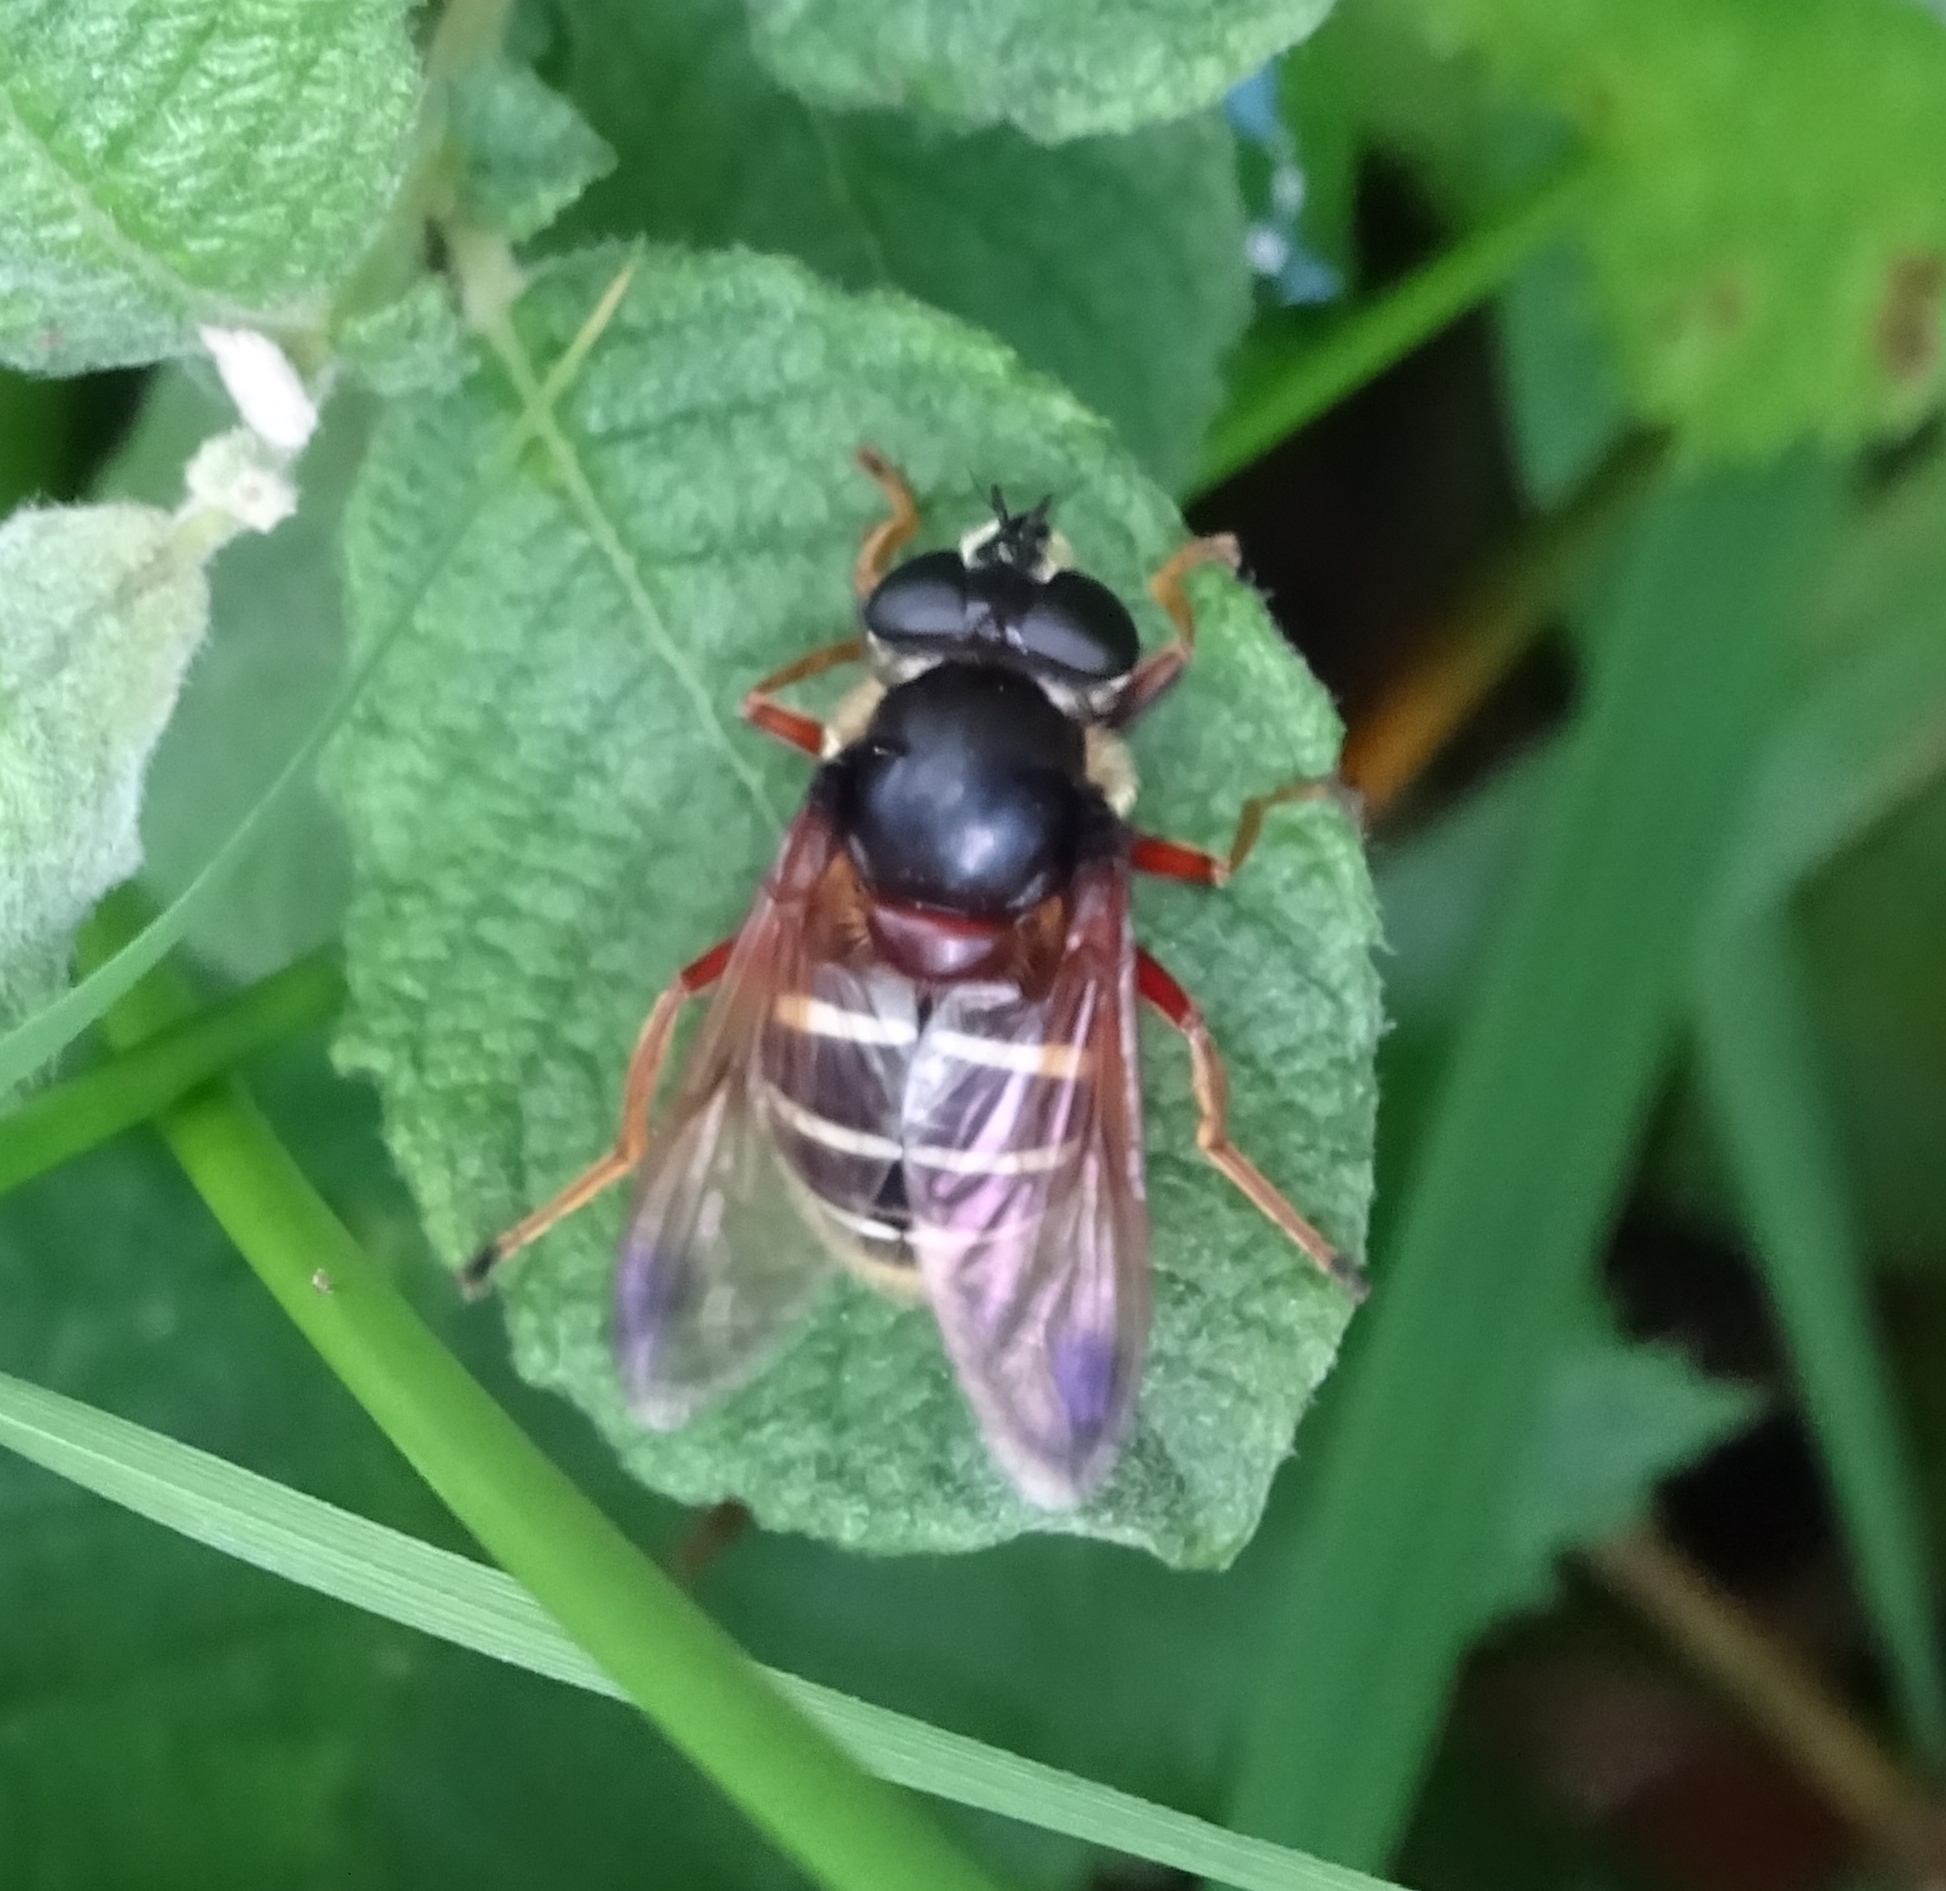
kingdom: Animalia
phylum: Arthropoda
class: Insecta
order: Diptera
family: Syrphidae
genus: Sericomyia
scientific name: Sericomyia lappona
